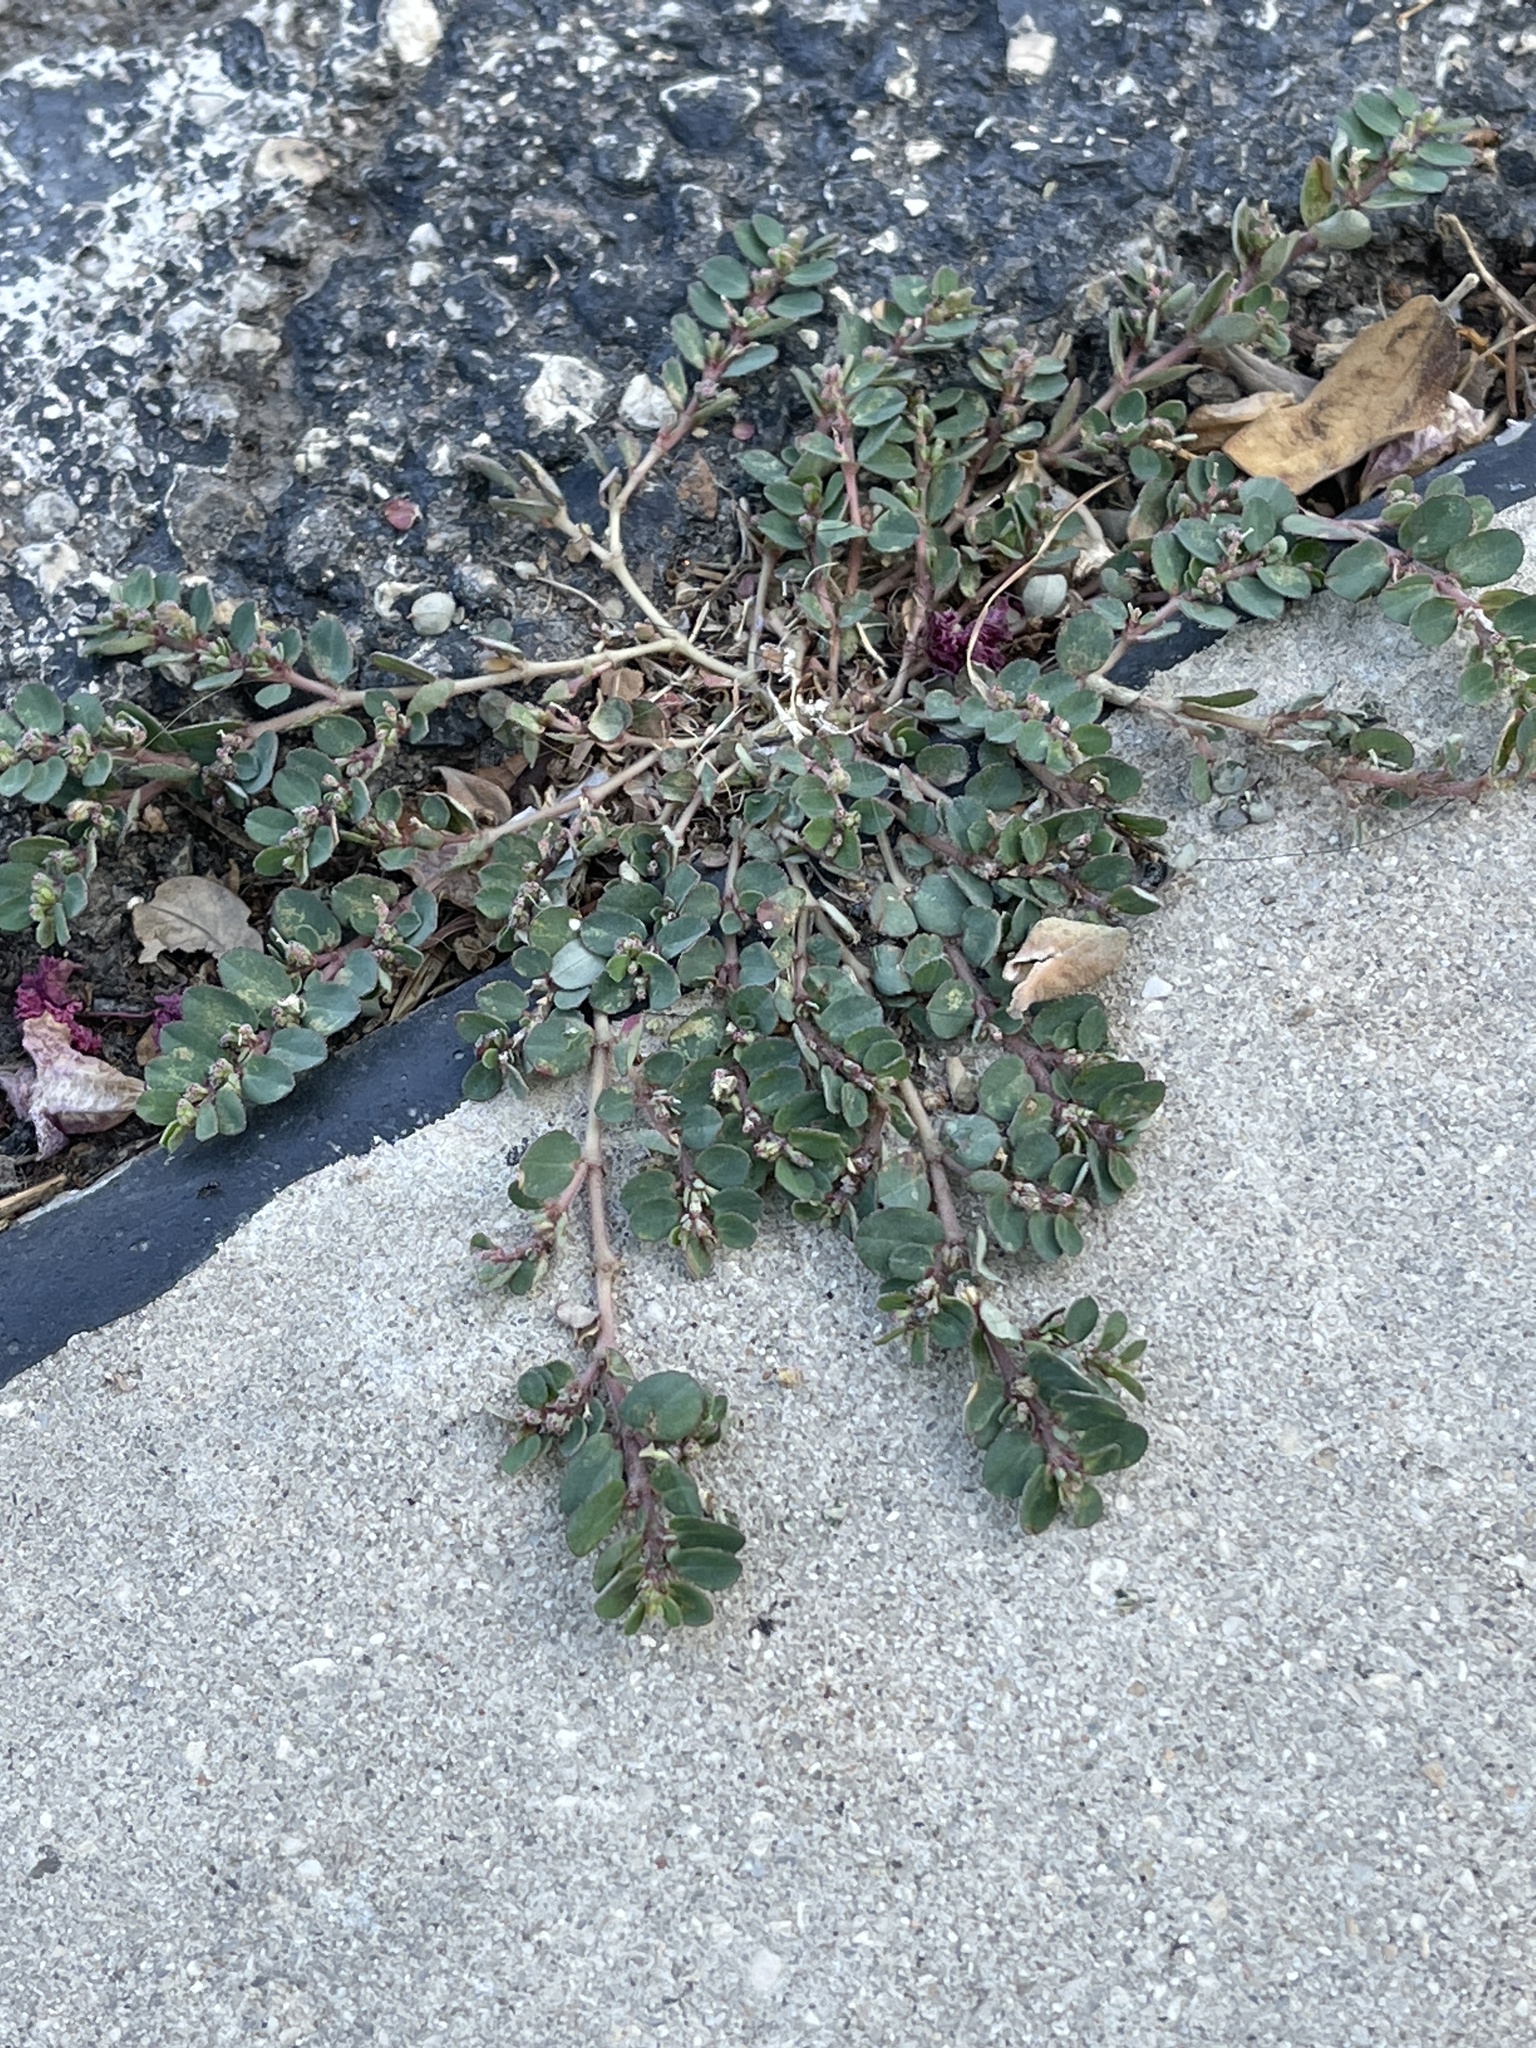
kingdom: Plantae
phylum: Tracheophyta
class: Magnoliopsida
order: Malpighiales
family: Euphorbiaceae
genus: Euphorbia
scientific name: Euphorbia prostrata
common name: Prostrate sandmat
